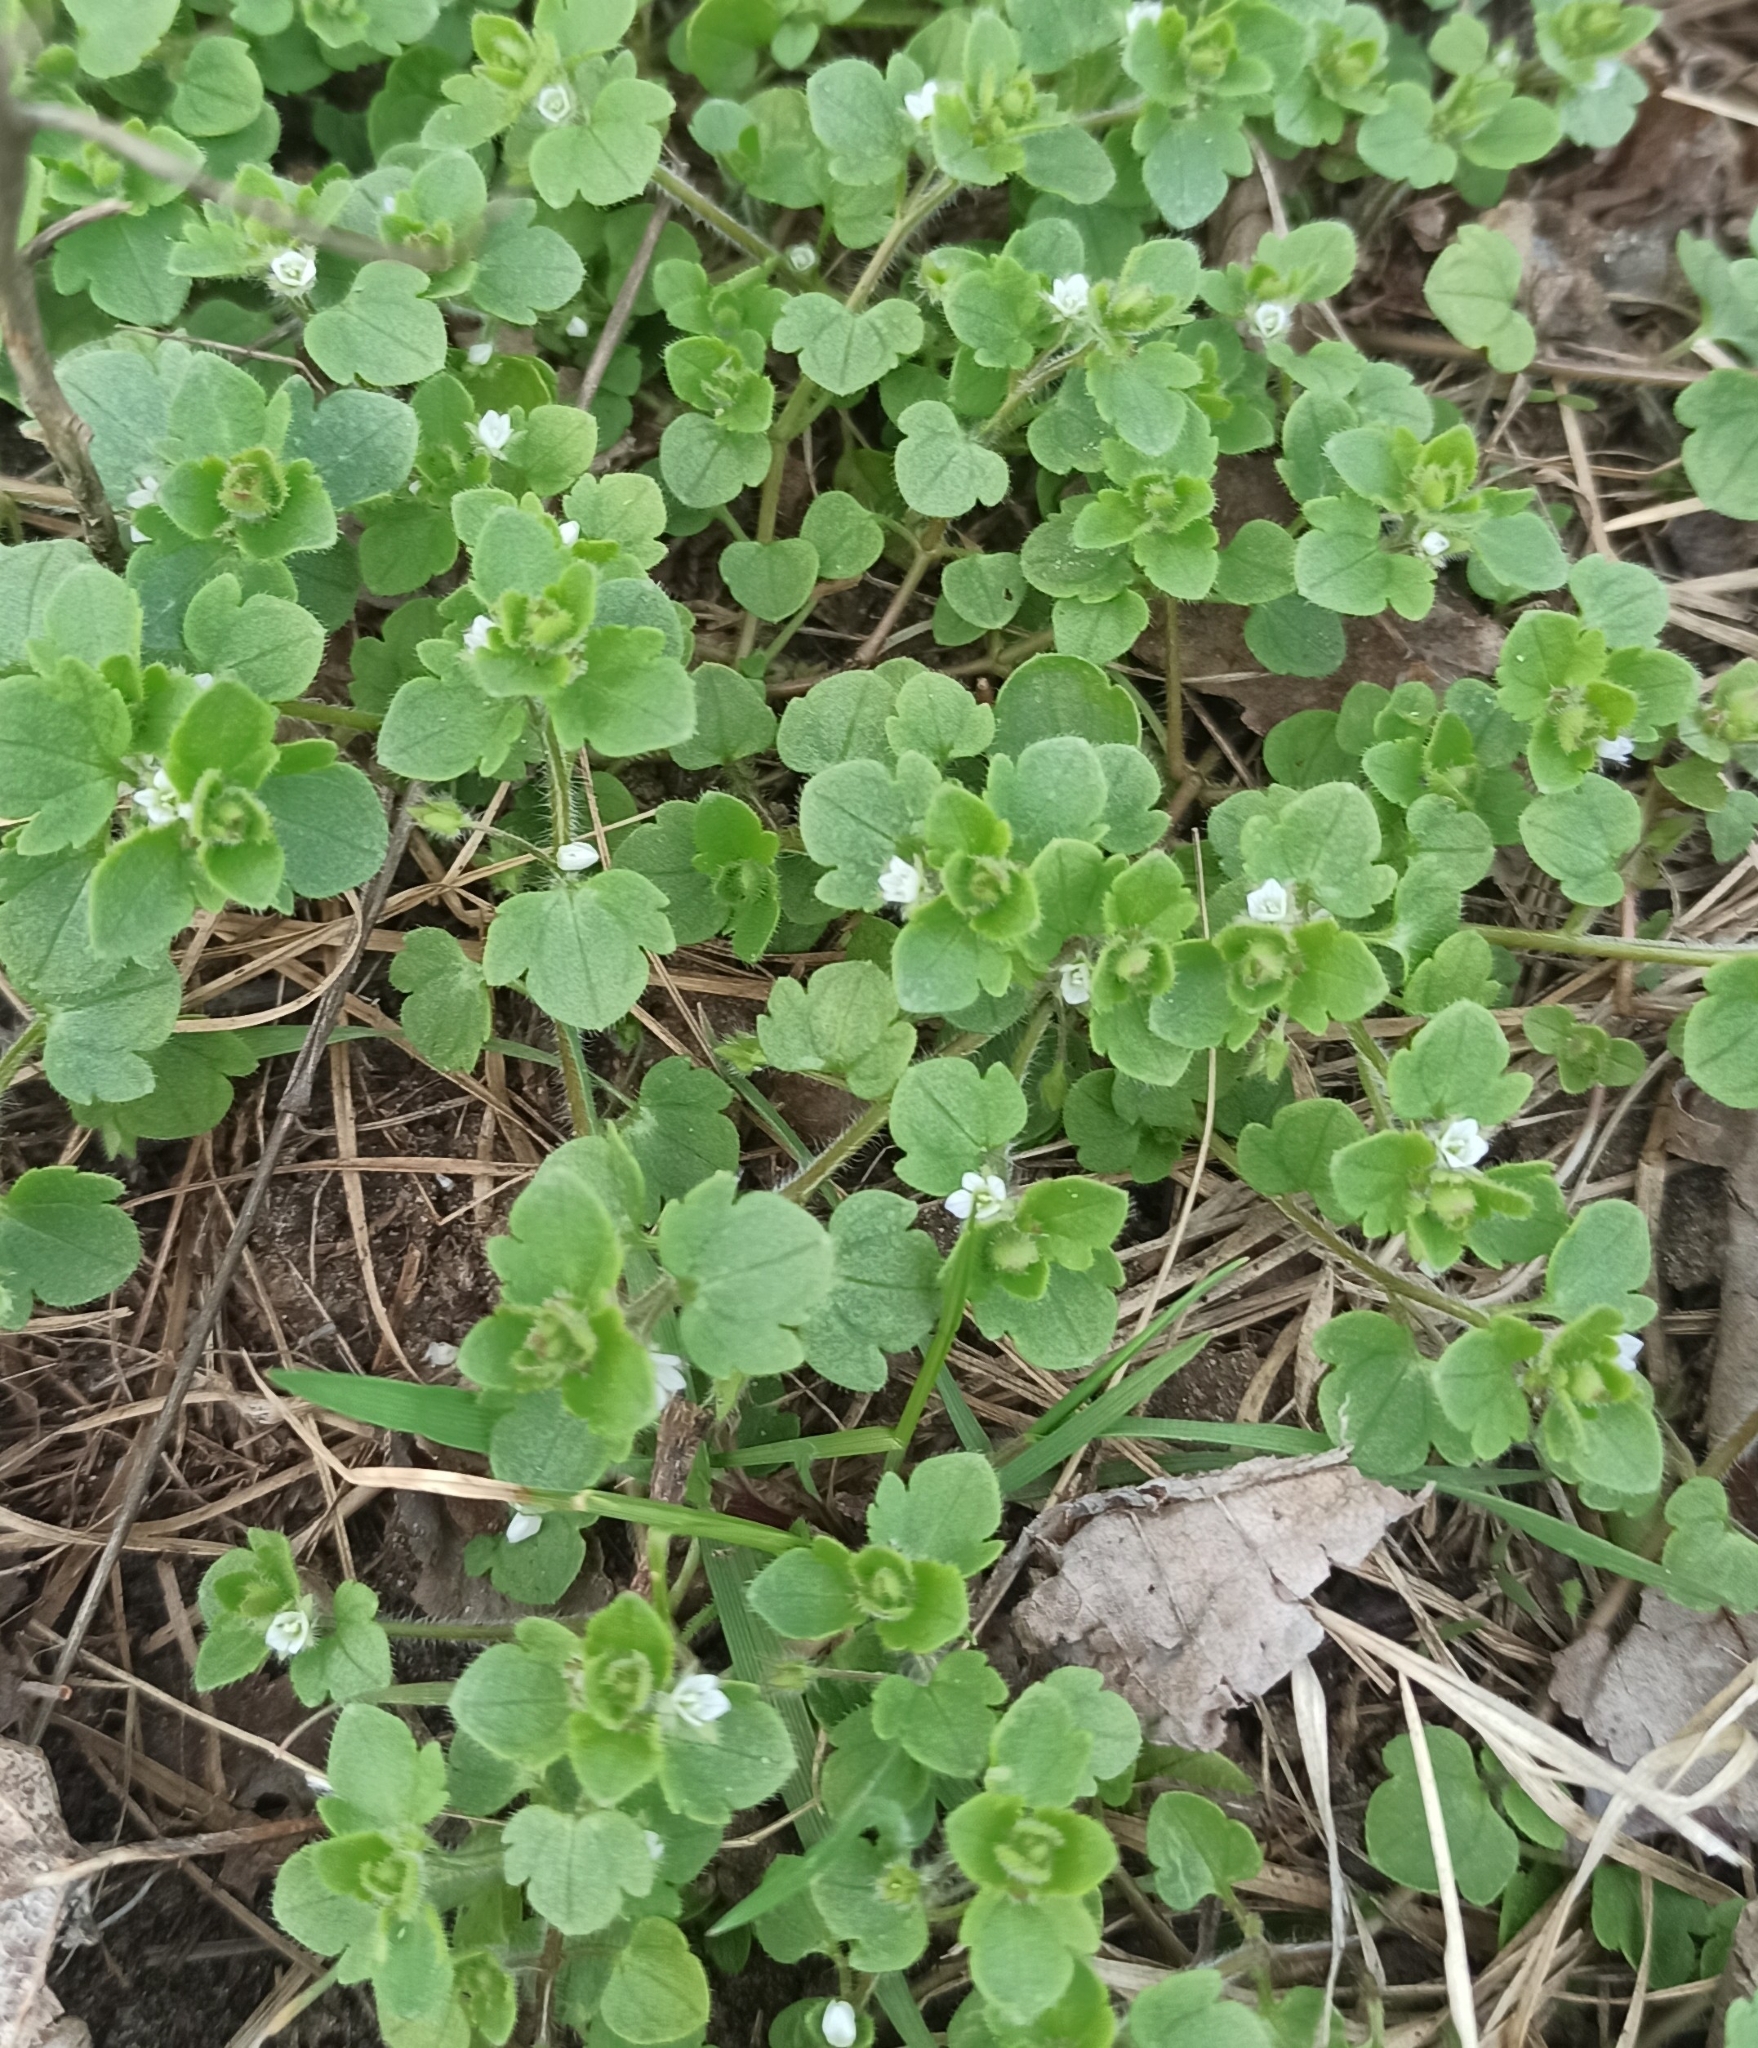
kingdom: Plantae
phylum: Tracheophyta
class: Magnoliopsida
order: Lamiales
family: Plantaginaceae
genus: Veronica
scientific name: Veronica sublobata
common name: False ivy-leaved speedwell
